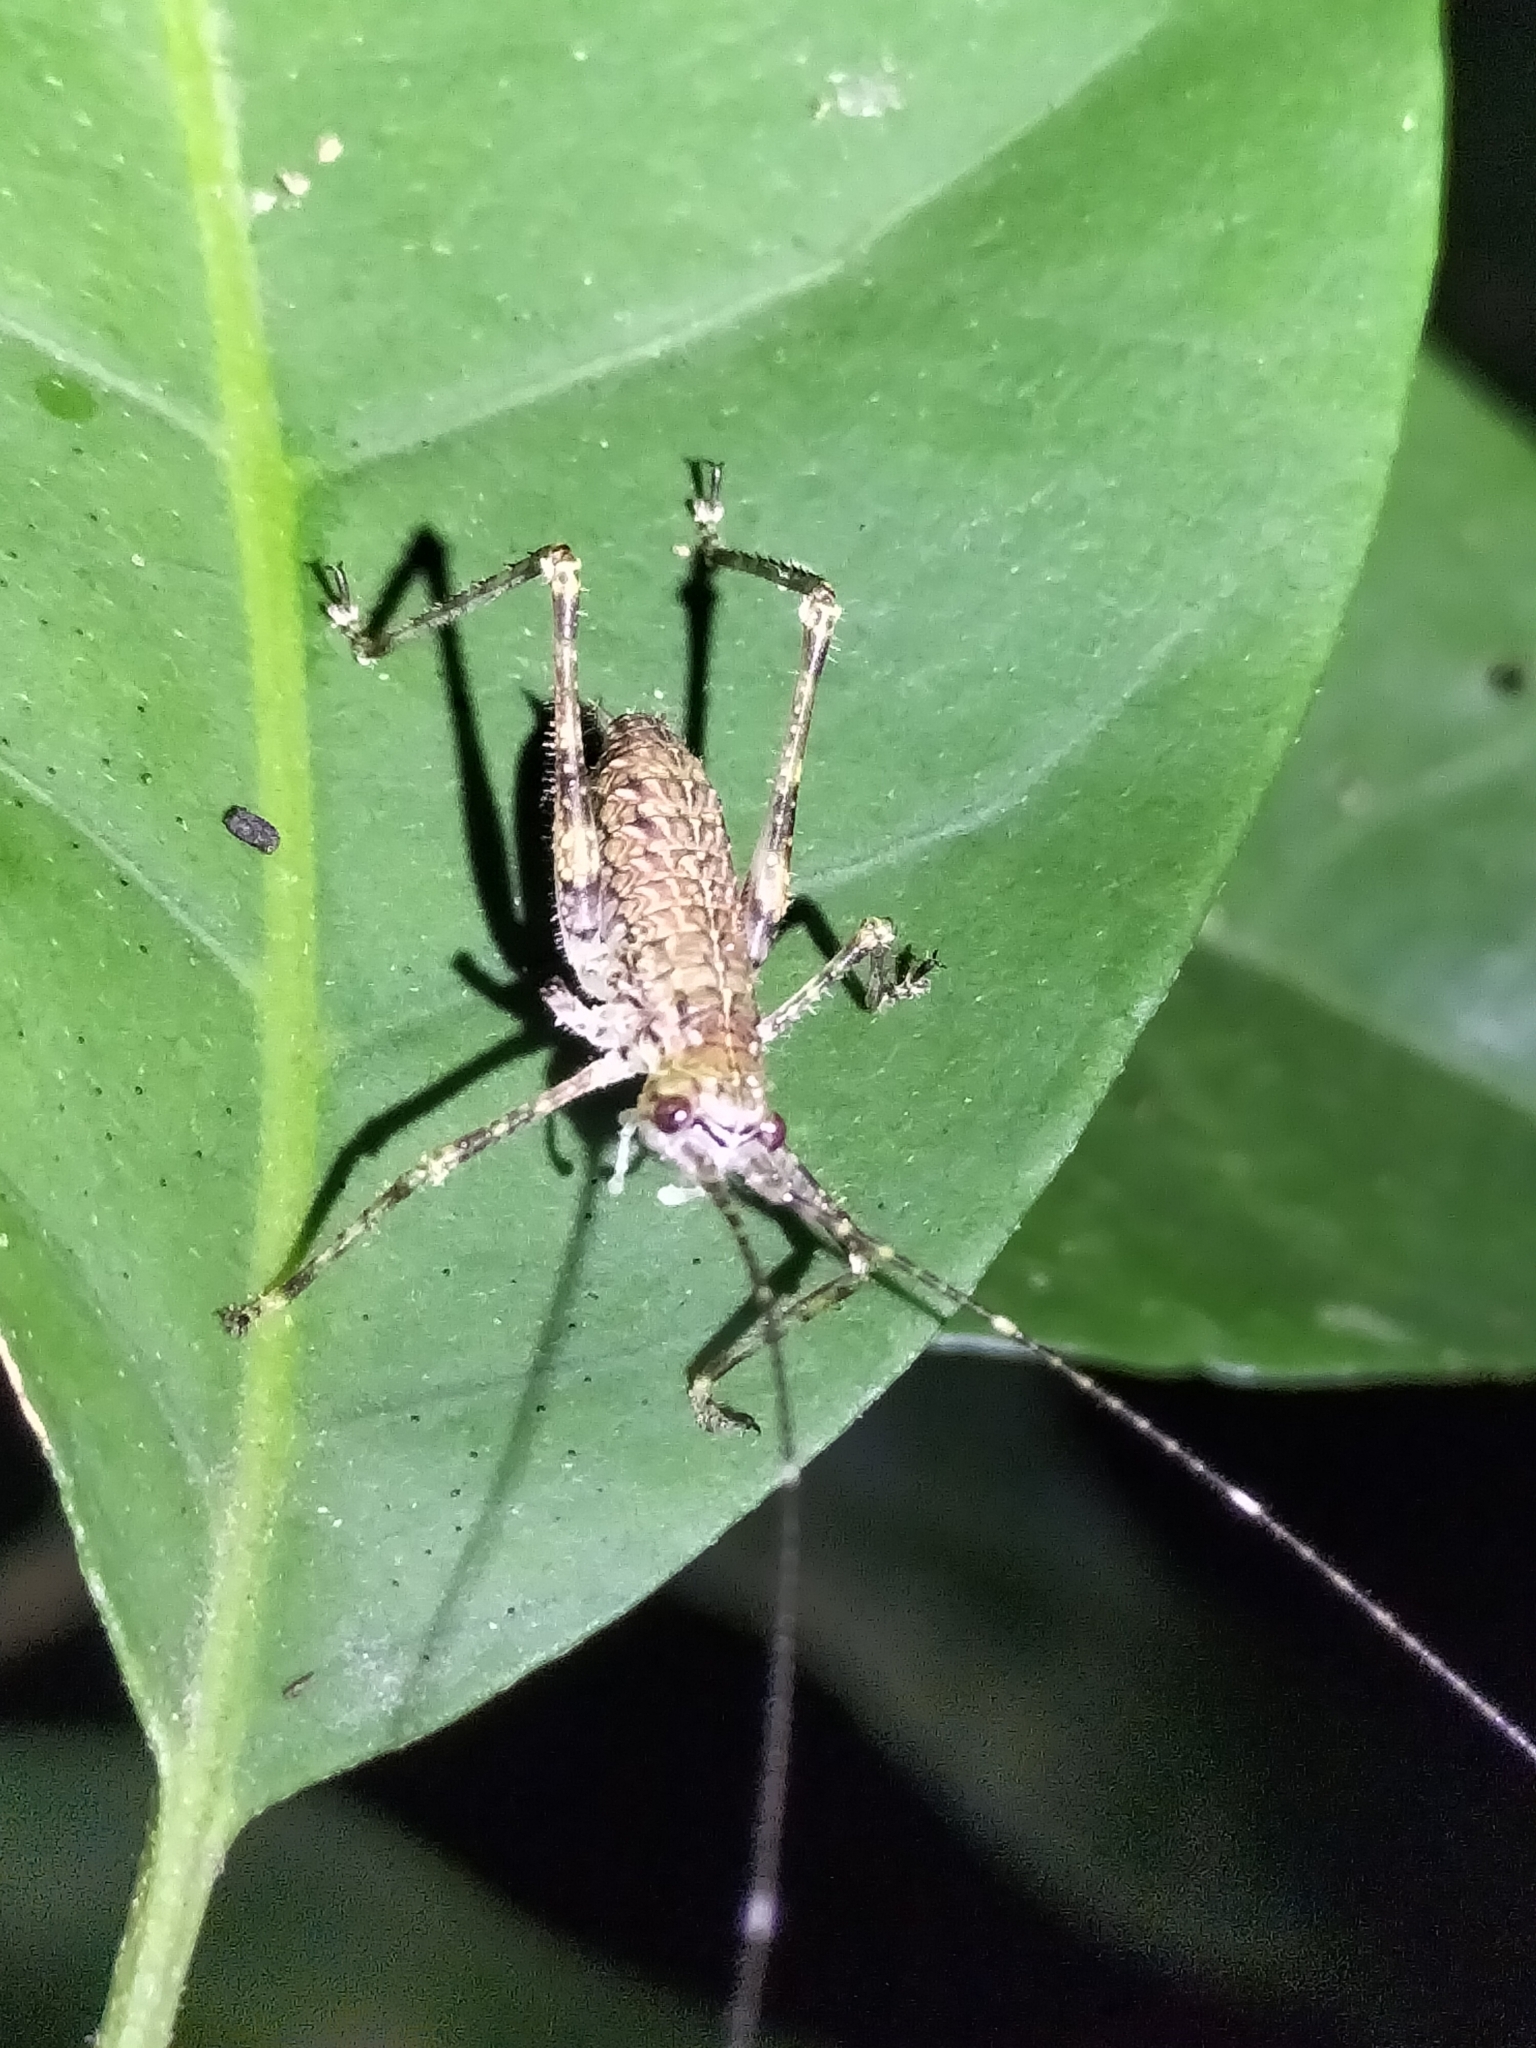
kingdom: Animalia
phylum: Arthropoda
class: Insecta
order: Orthoptera
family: Tettigoniidae
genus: Phricta
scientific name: Phricta spinosa
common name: Giant spiny forest katydid
